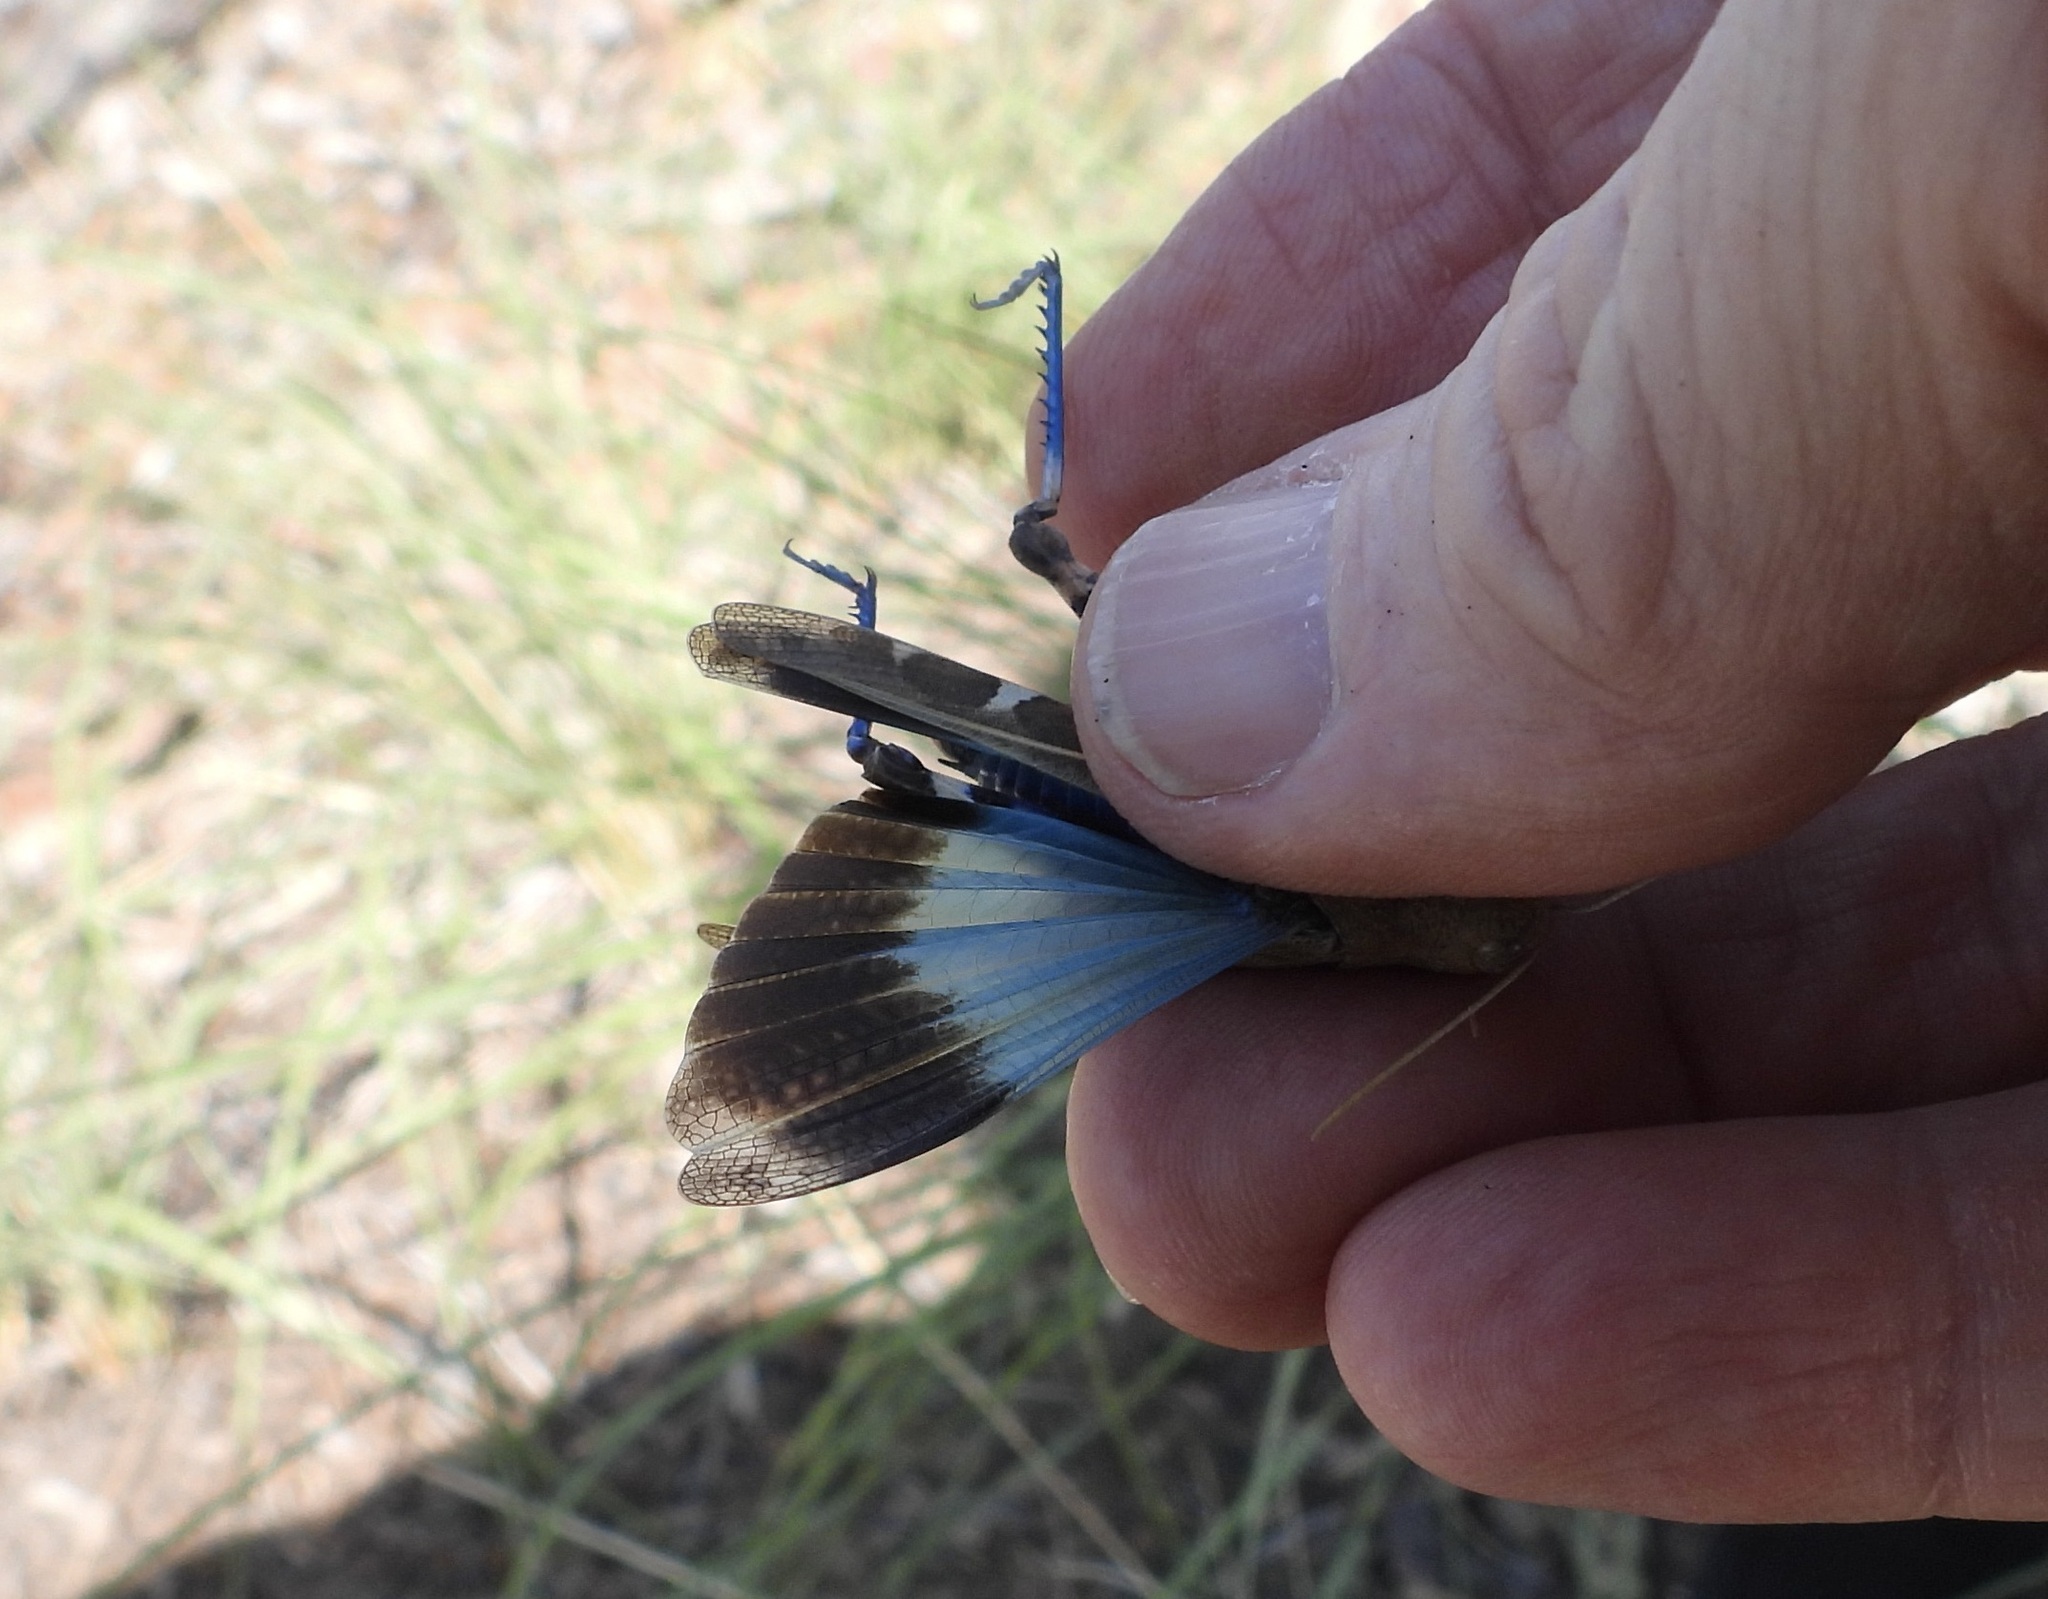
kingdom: Animalia
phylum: Arthropoda
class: Insecta
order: Orthoptera
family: Acrididae
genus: Leprus
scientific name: Leprus intermedius
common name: Saussure's blue-winged grasshopper
